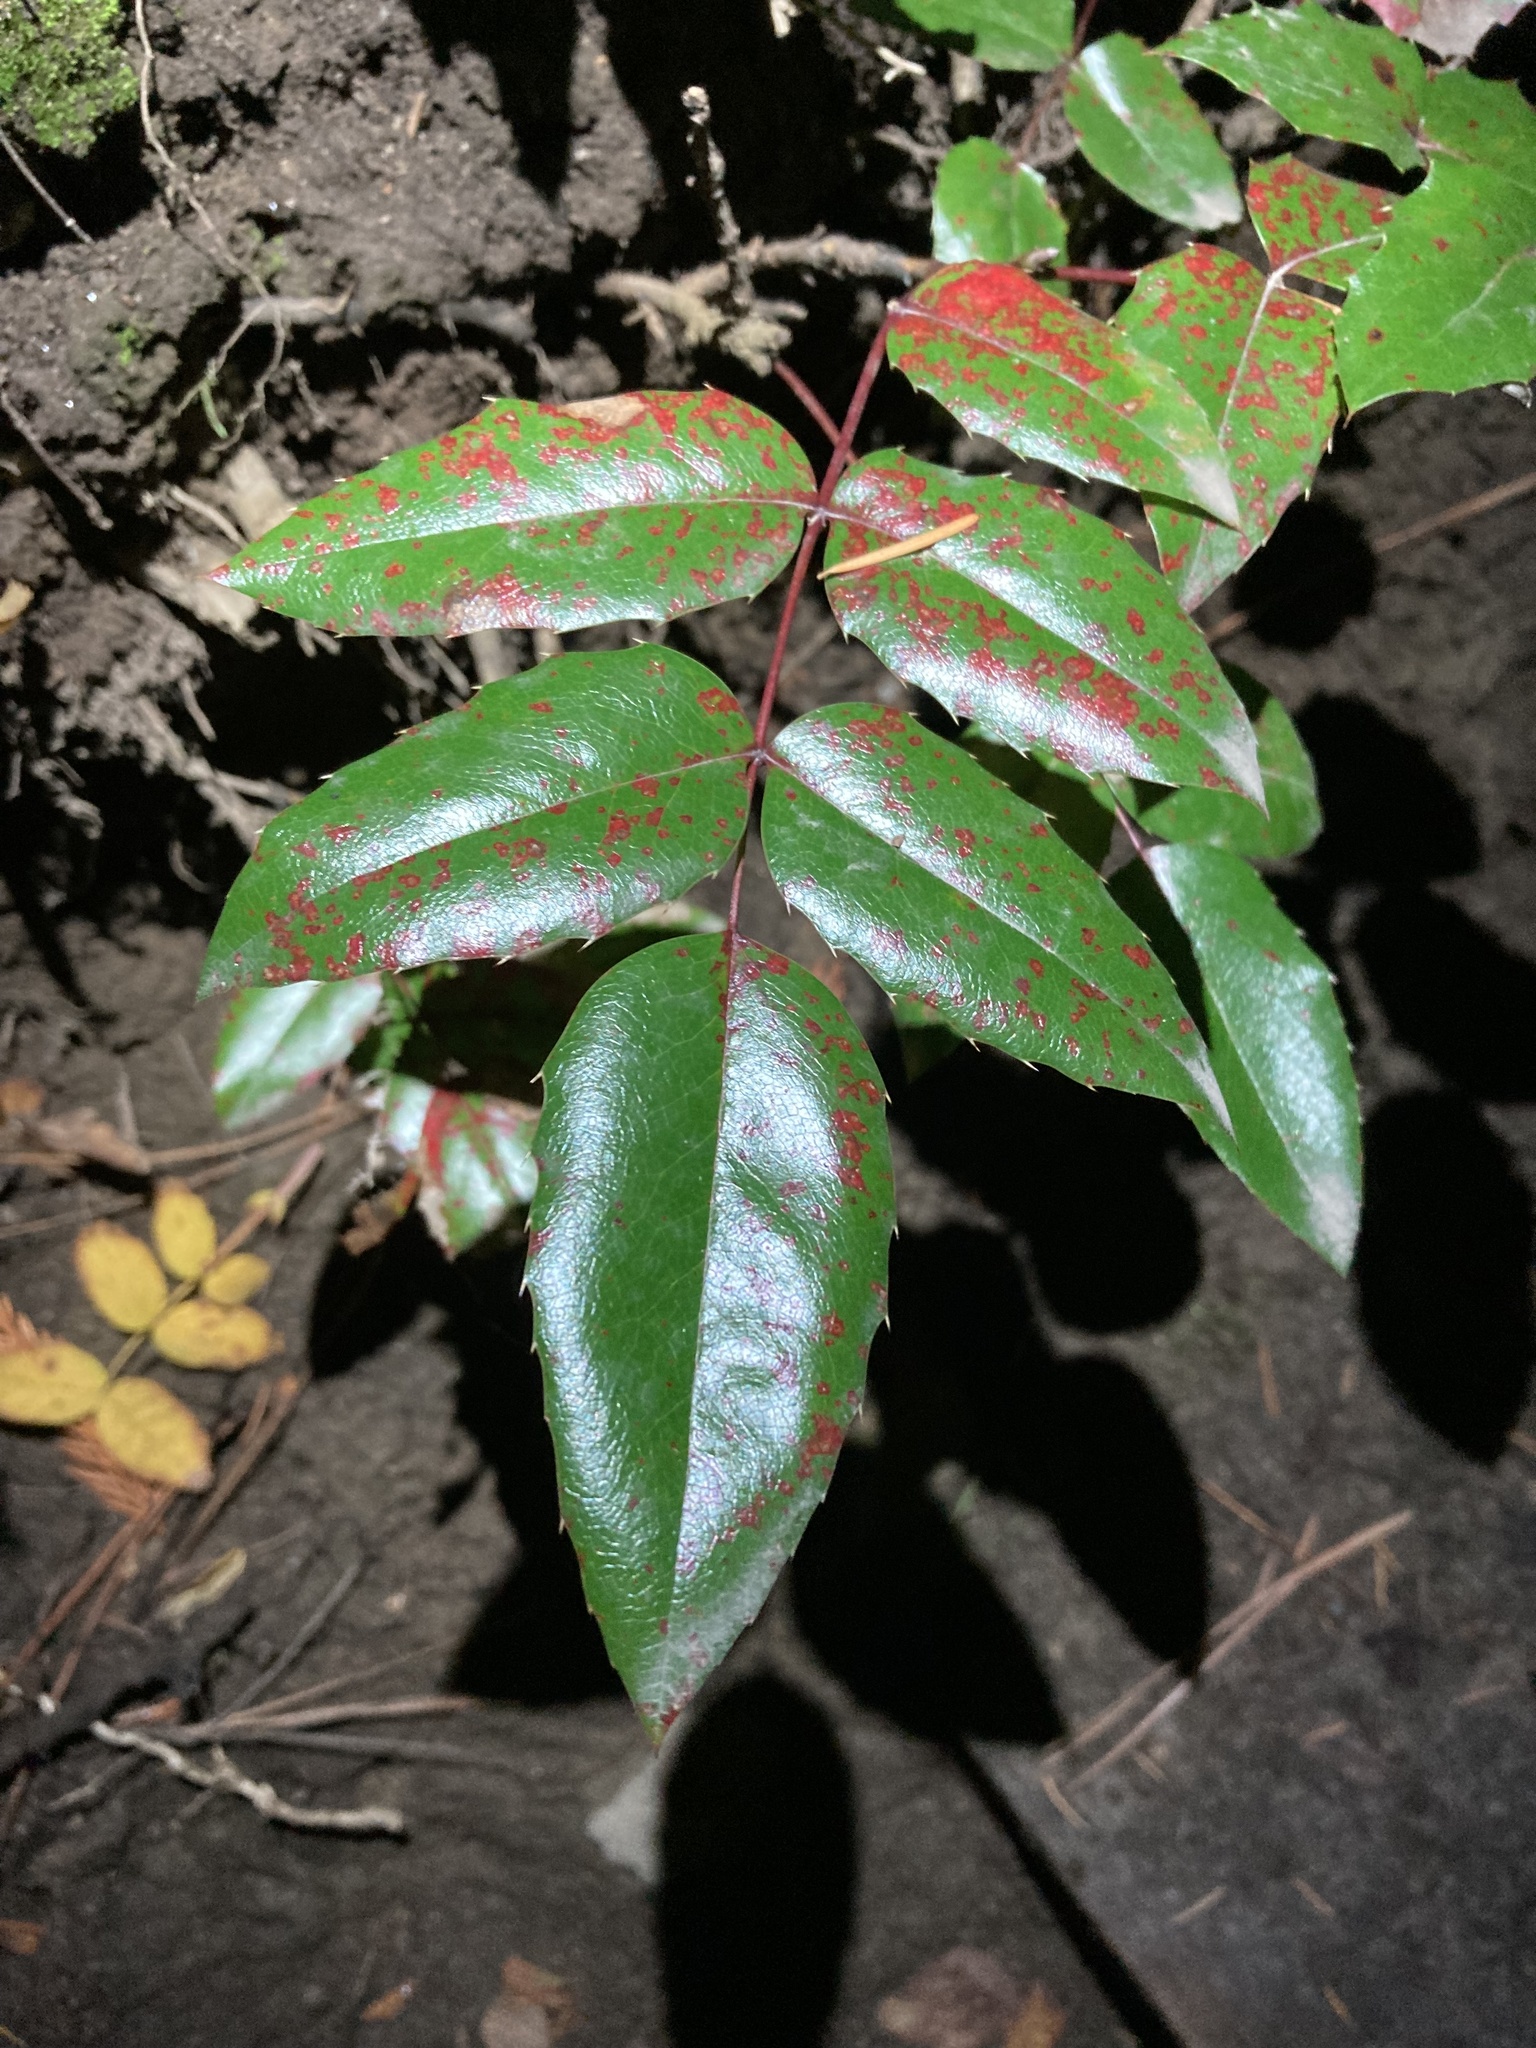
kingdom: Plantae
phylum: Tracheophyta
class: Magnoliopsida
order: Ranunculales
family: Berberidaceae
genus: Mahonia
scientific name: Mahonia aquifolium
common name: Oregon-grape
